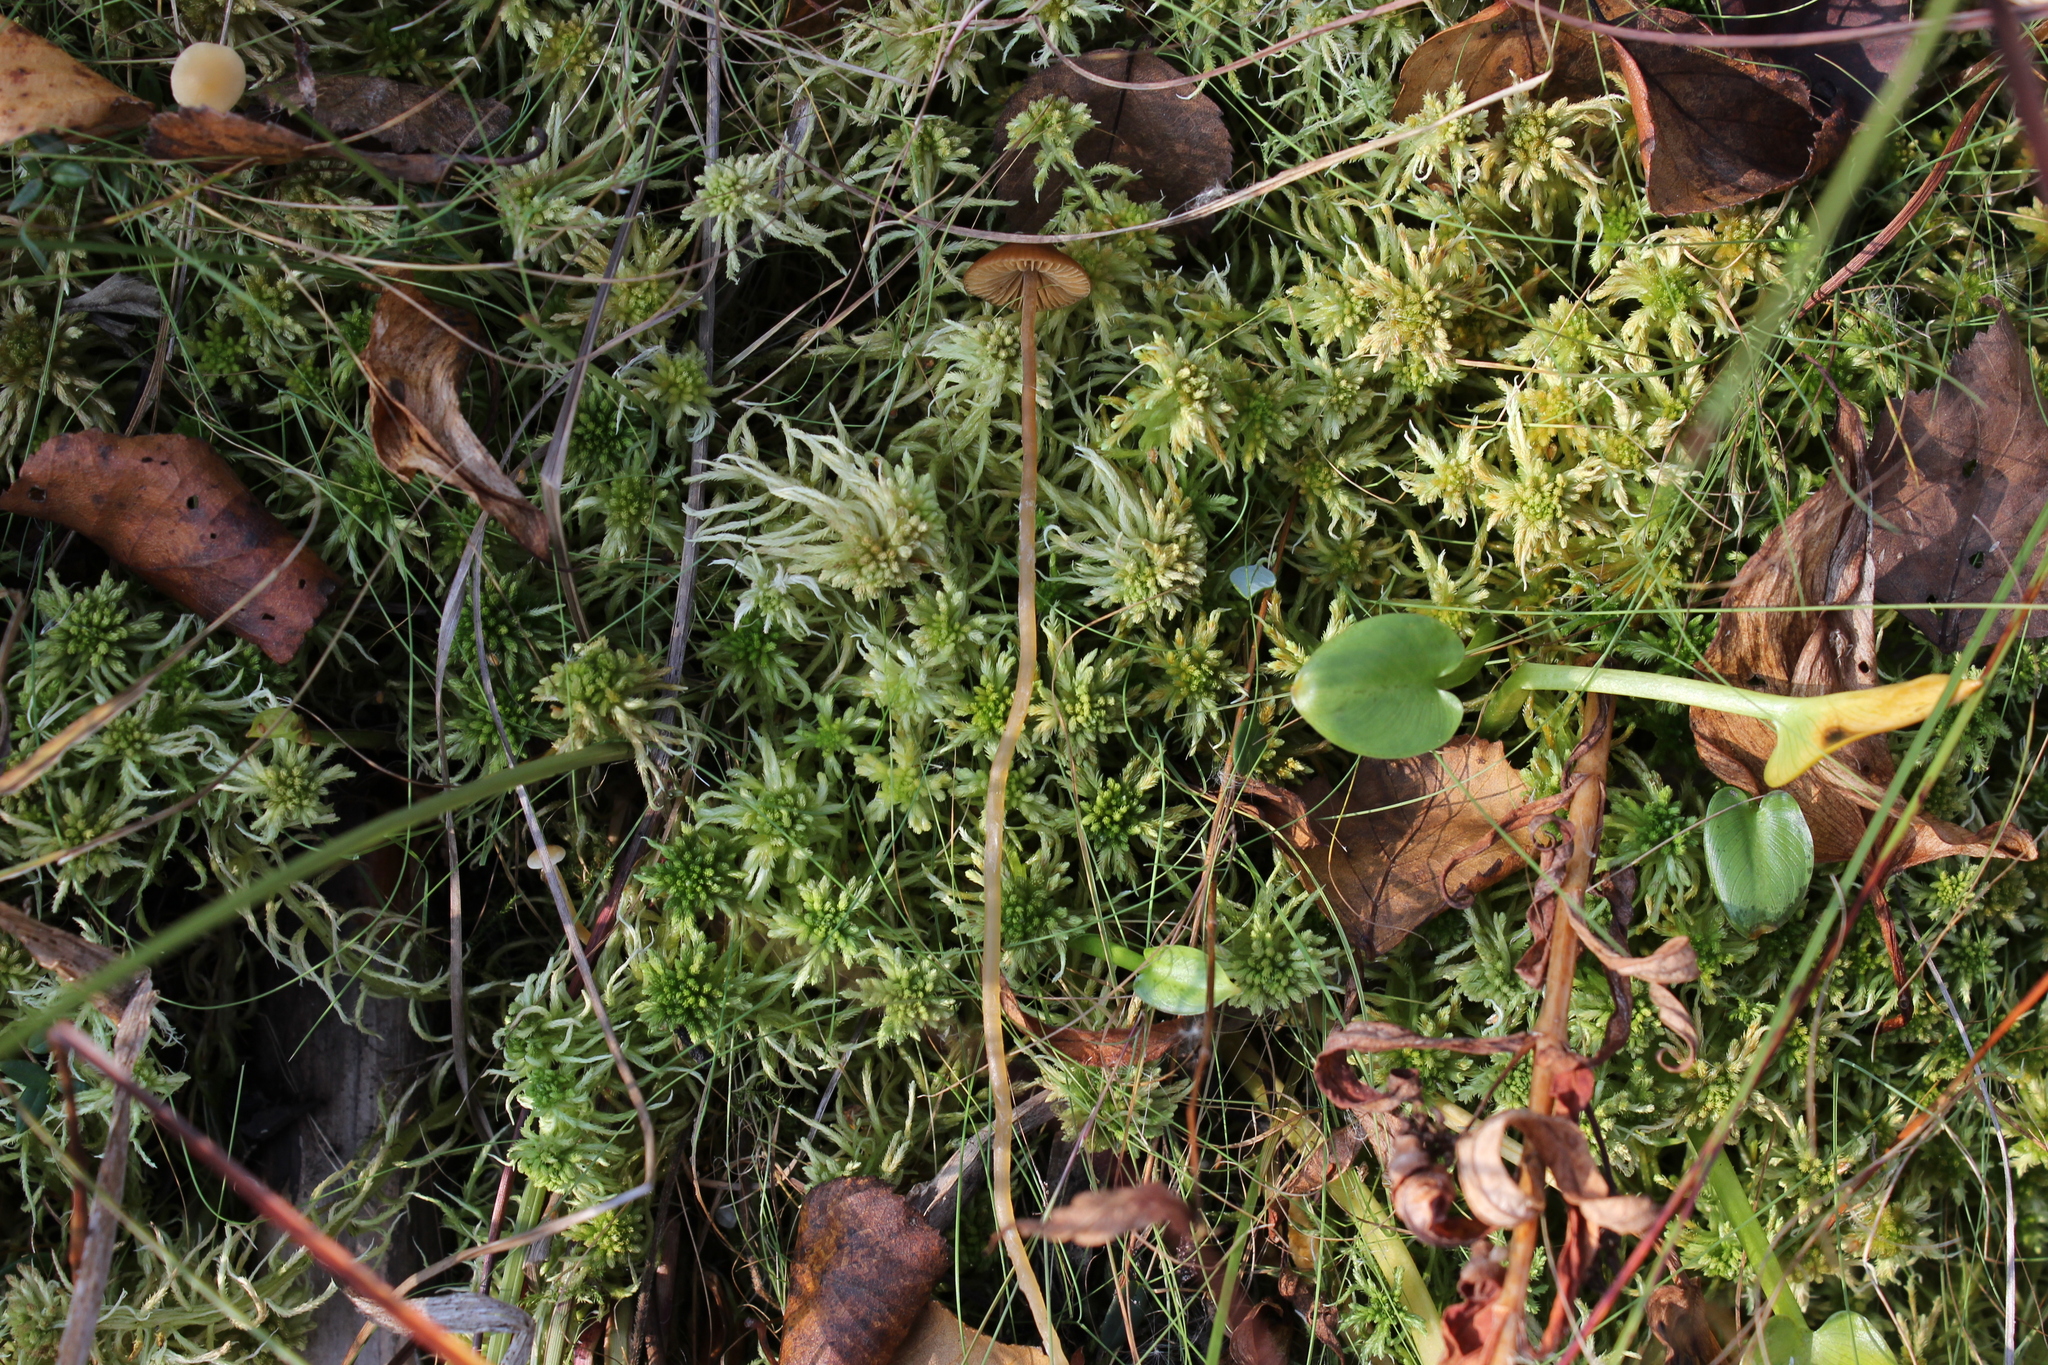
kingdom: Fungi
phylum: Basidiomycota
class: Agaricomycetes
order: Agaricales
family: Hymenogastraceae
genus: Galerina
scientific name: Galerina tibiicystis
